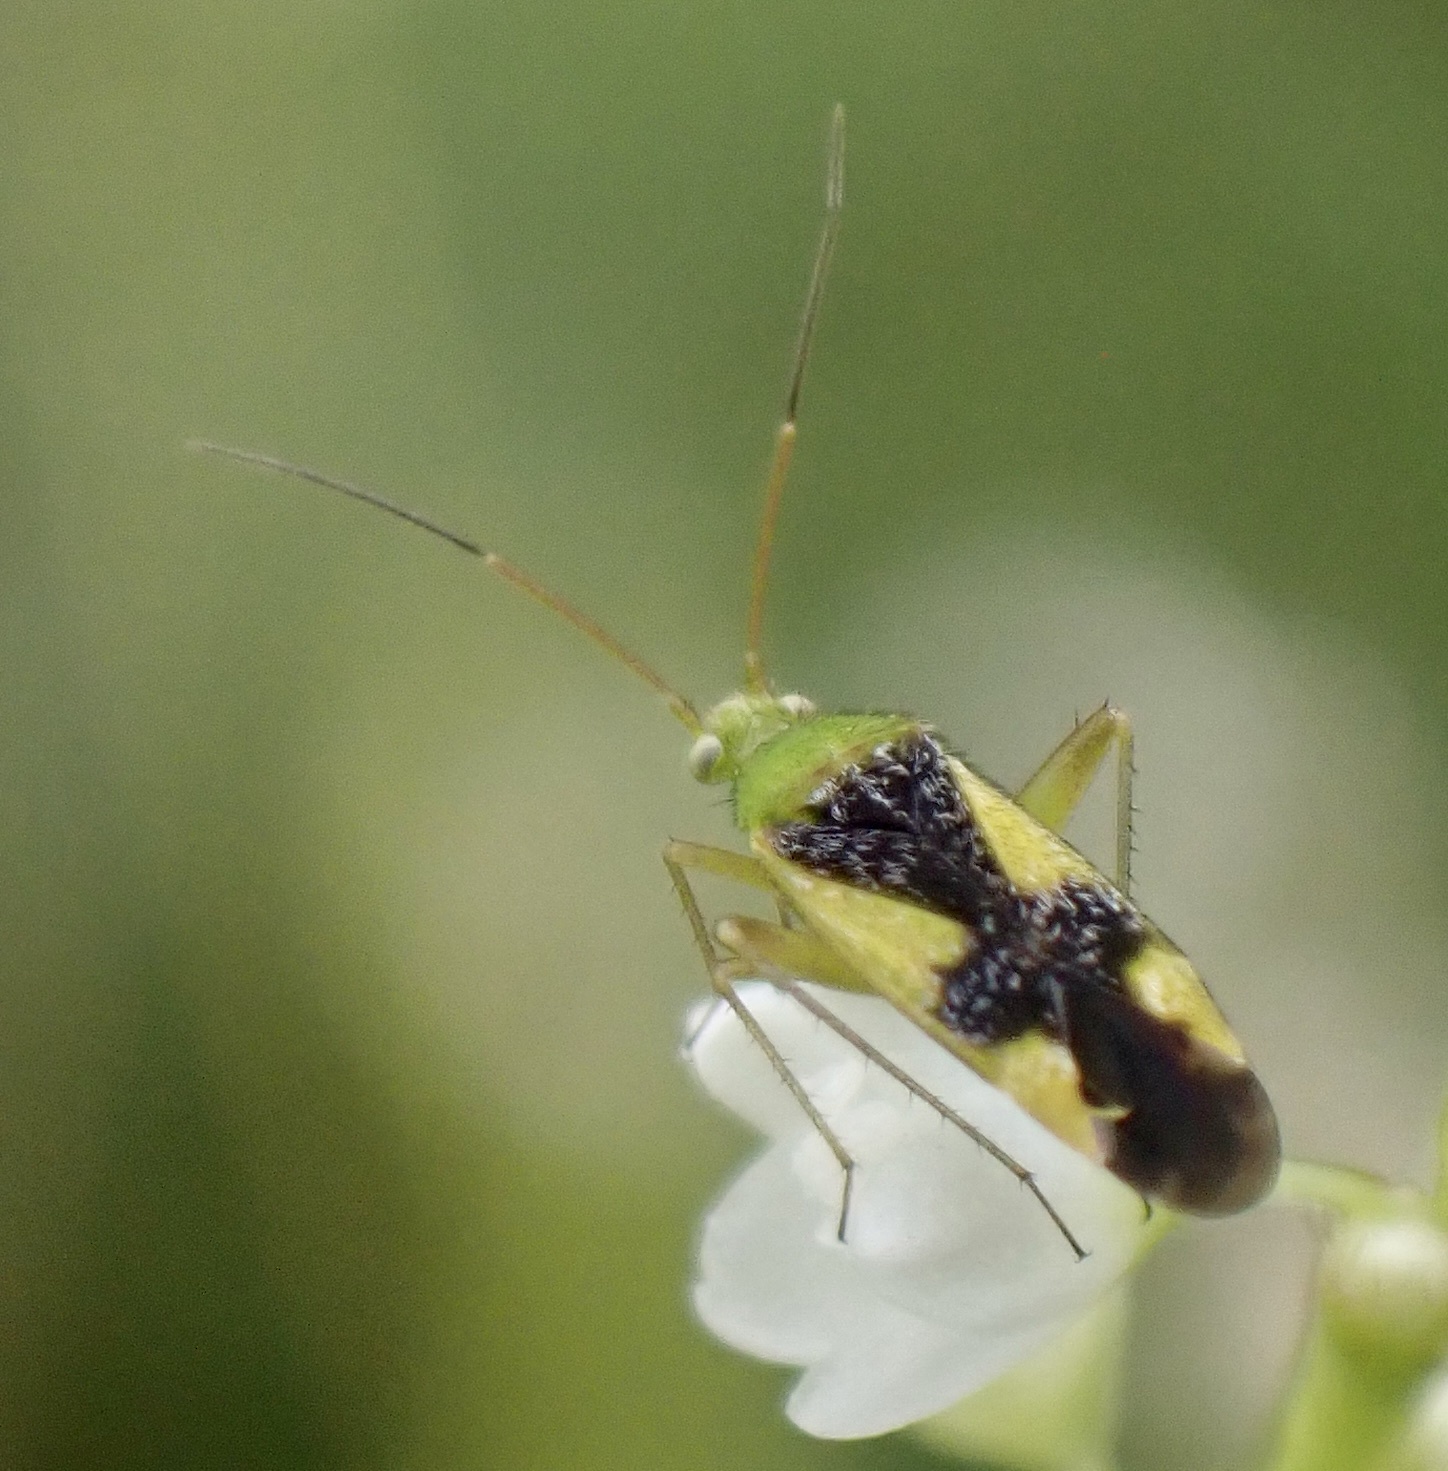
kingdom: Animalia
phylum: Arthropoda
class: Insecta
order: Hemiptera
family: Miridae
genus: Reuteroscopus
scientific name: Reuteroscopus ornatus
